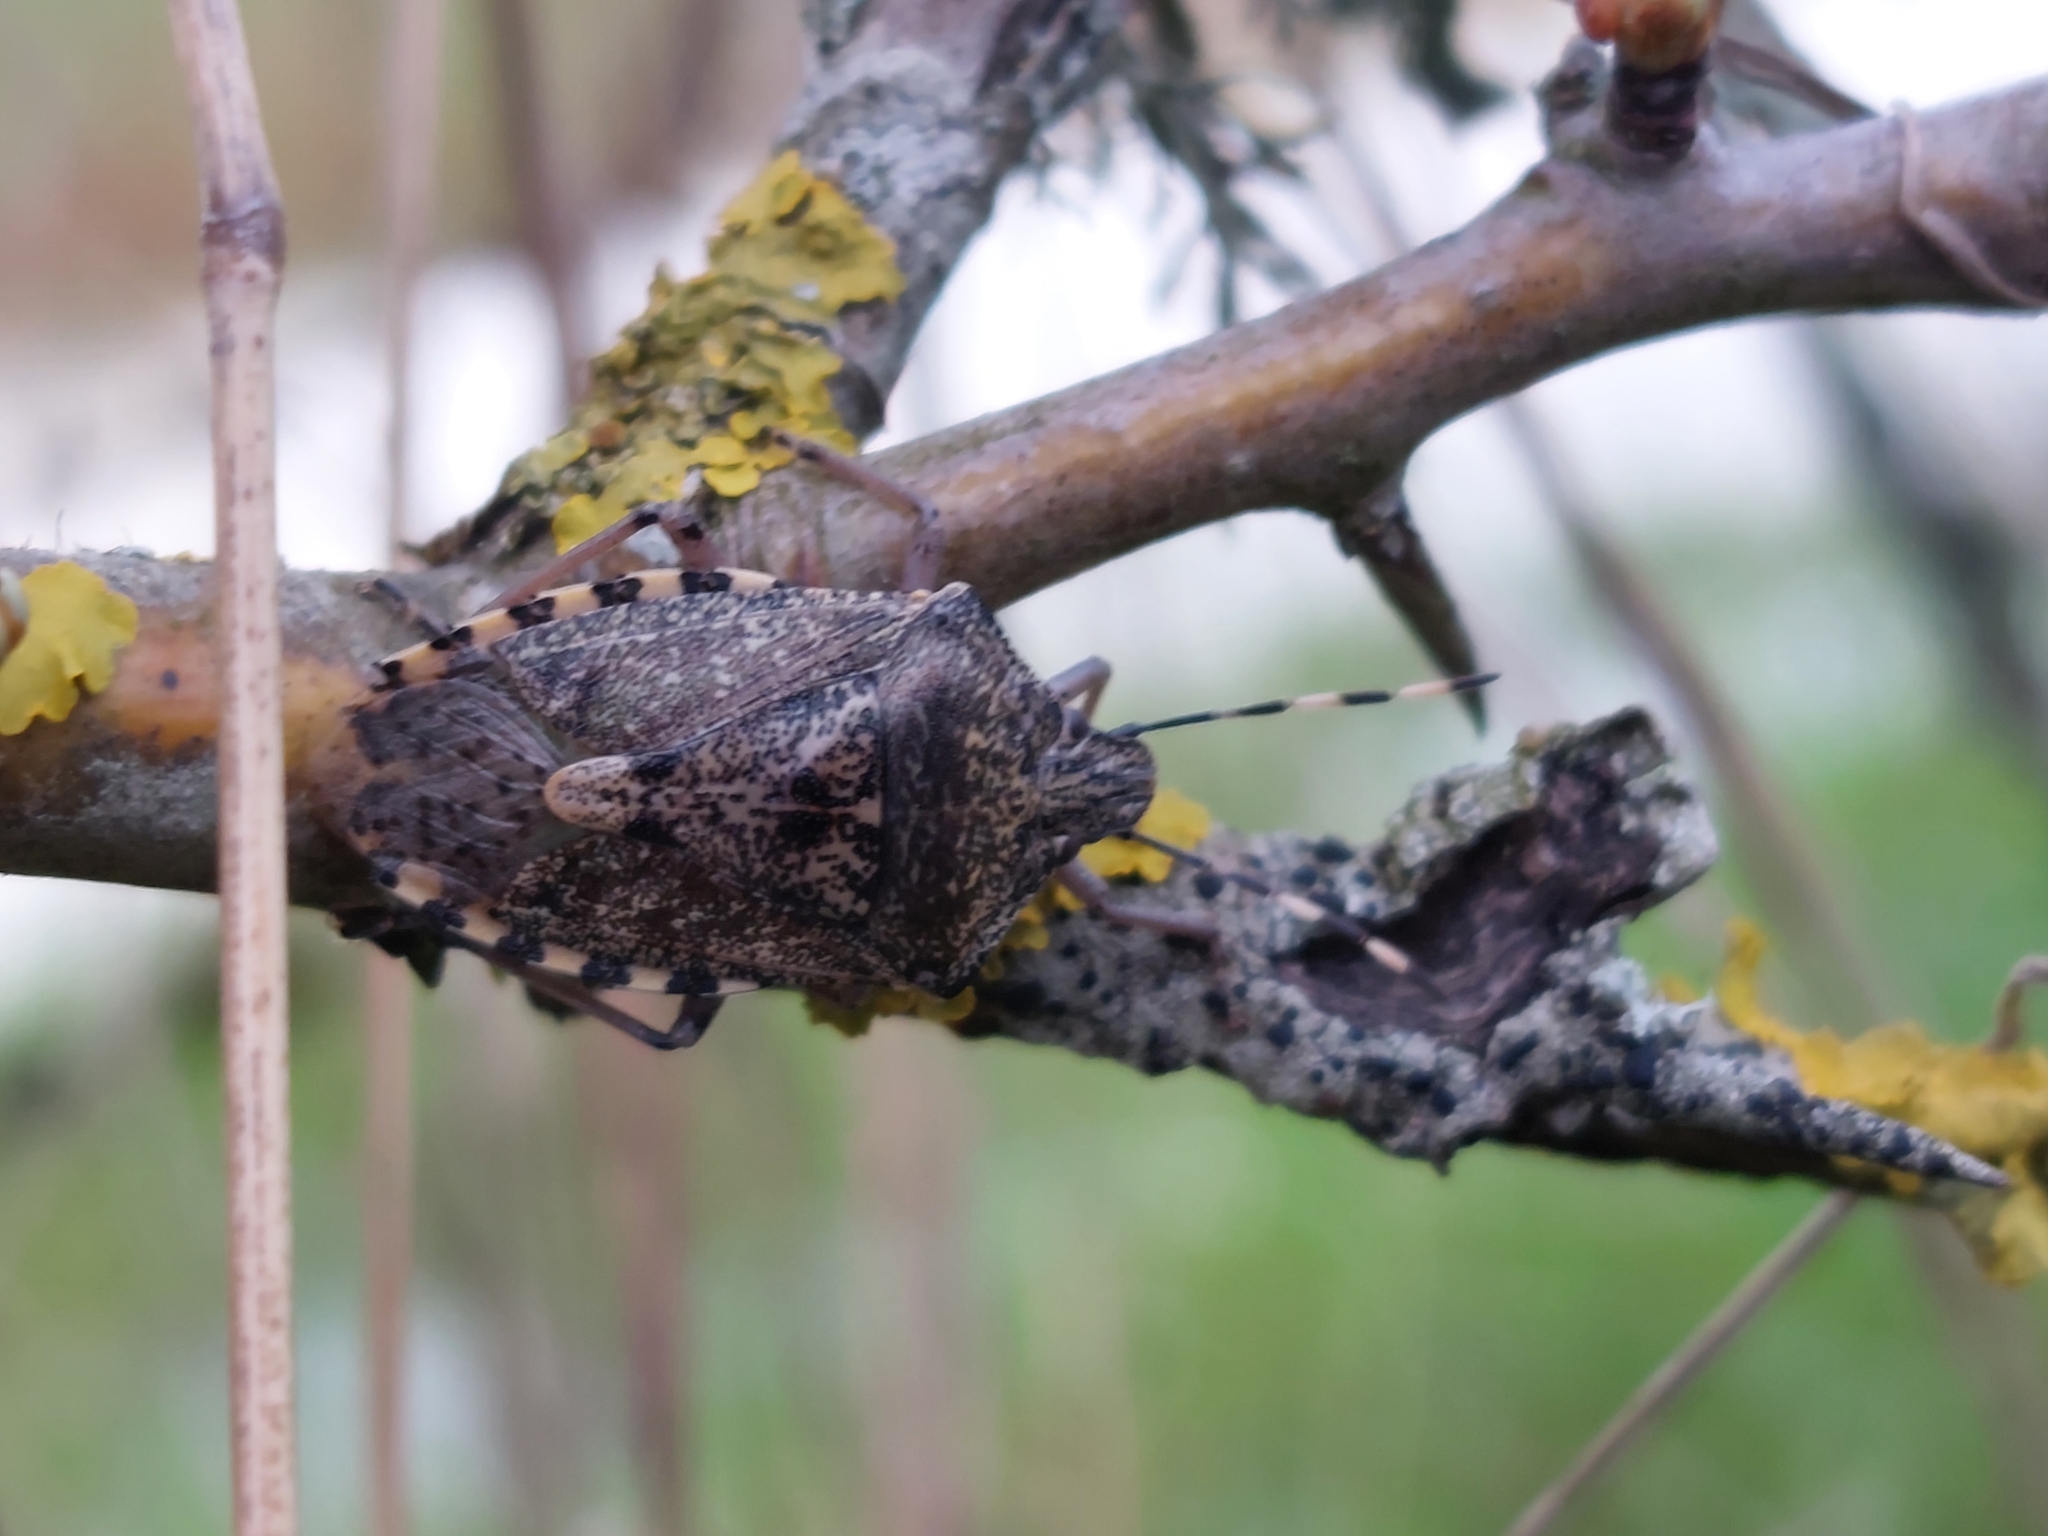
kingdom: Animalia
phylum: Arthropoda
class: Insecta
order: Hemiptera
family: Pentatomidae
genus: Rhaphigaster
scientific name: Rhaphigaster nebulosa
